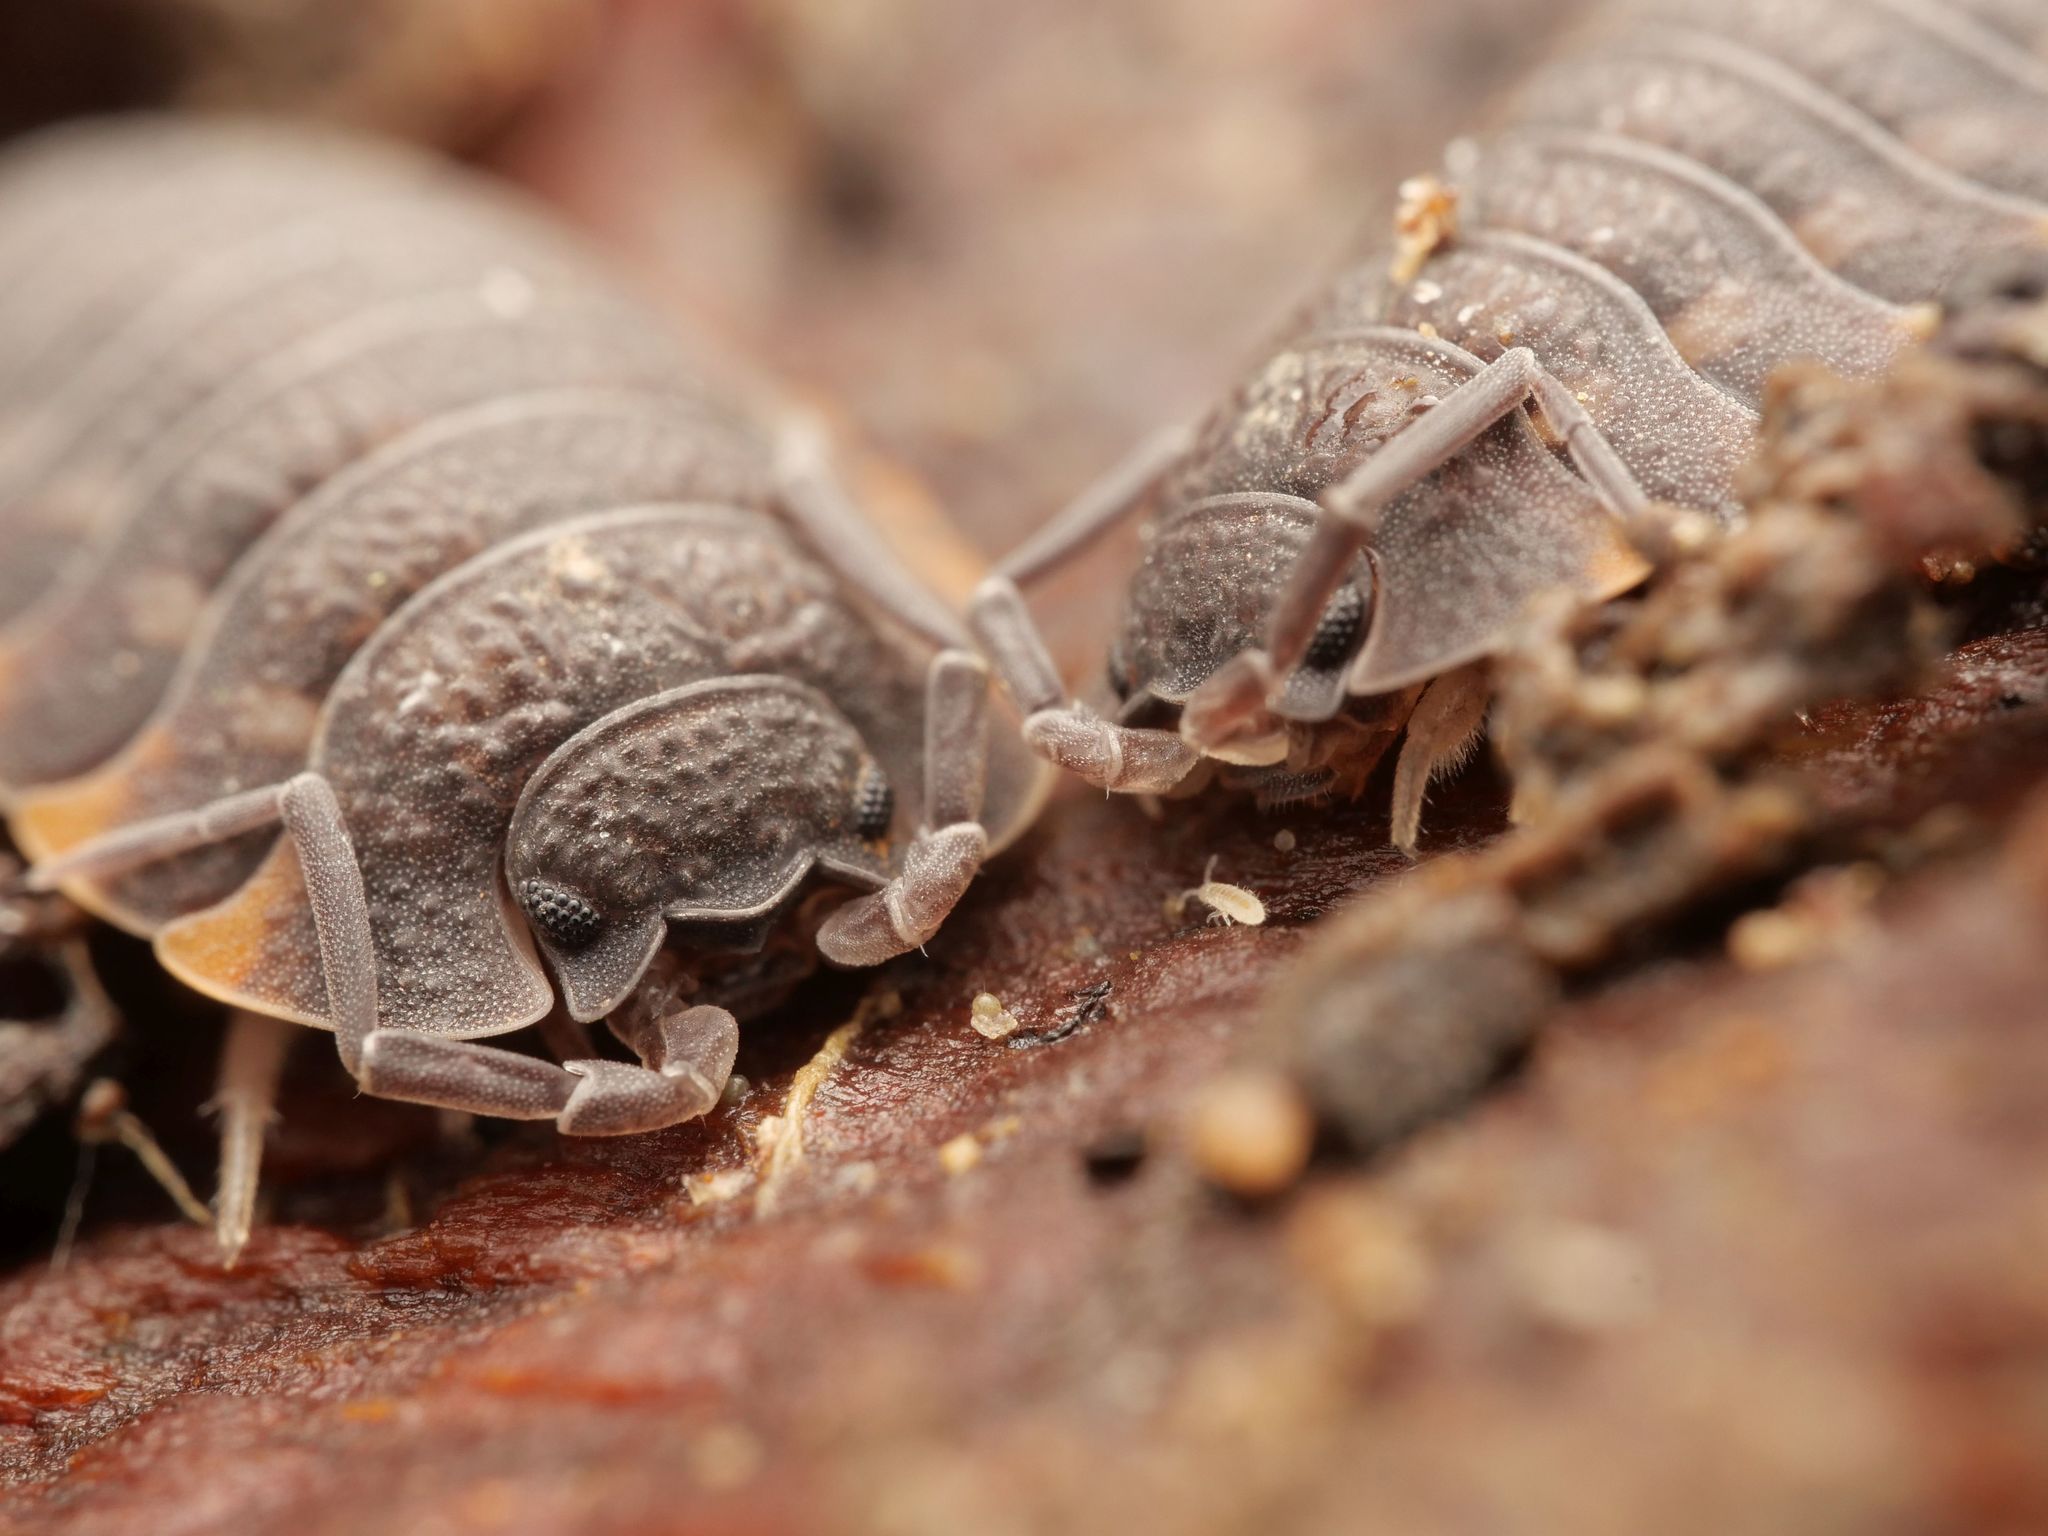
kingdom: Animalia
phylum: Arthropoda
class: Malacostraca
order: Isopoda
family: Trachelipodidae
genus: Trachelipus
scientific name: Trachelipus ratzeburgii
